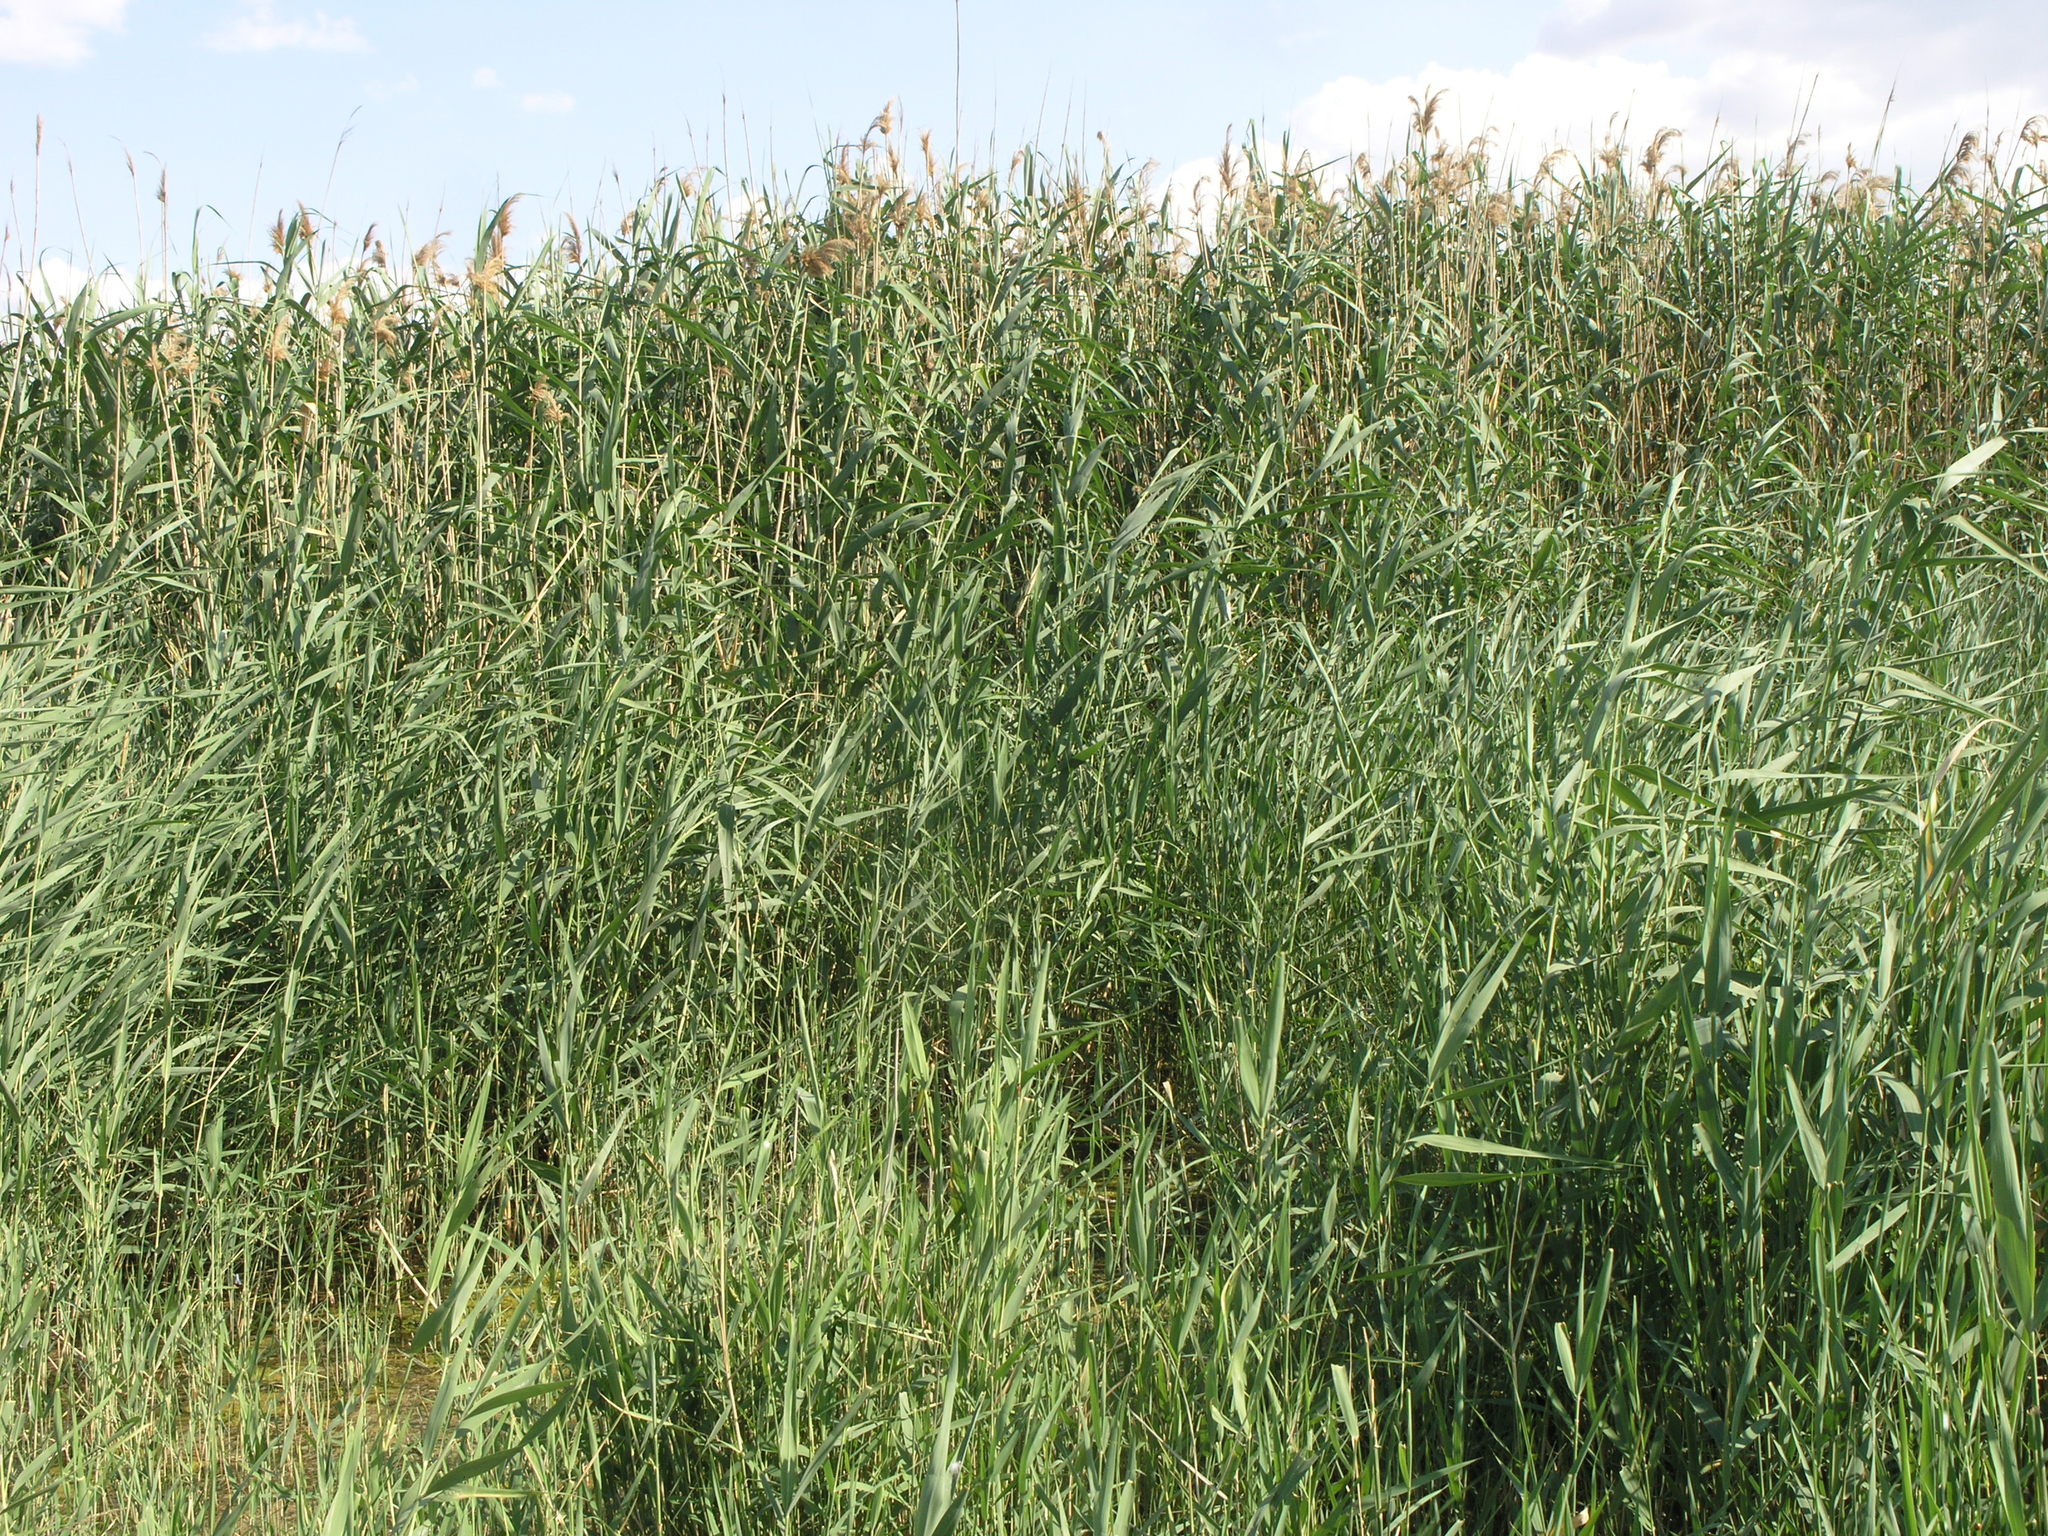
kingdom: Plantae
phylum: Tracheophyta
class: Liliopsida
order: Poales
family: Poaceae
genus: Phragmites
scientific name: Phragmites australis
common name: Common reed
